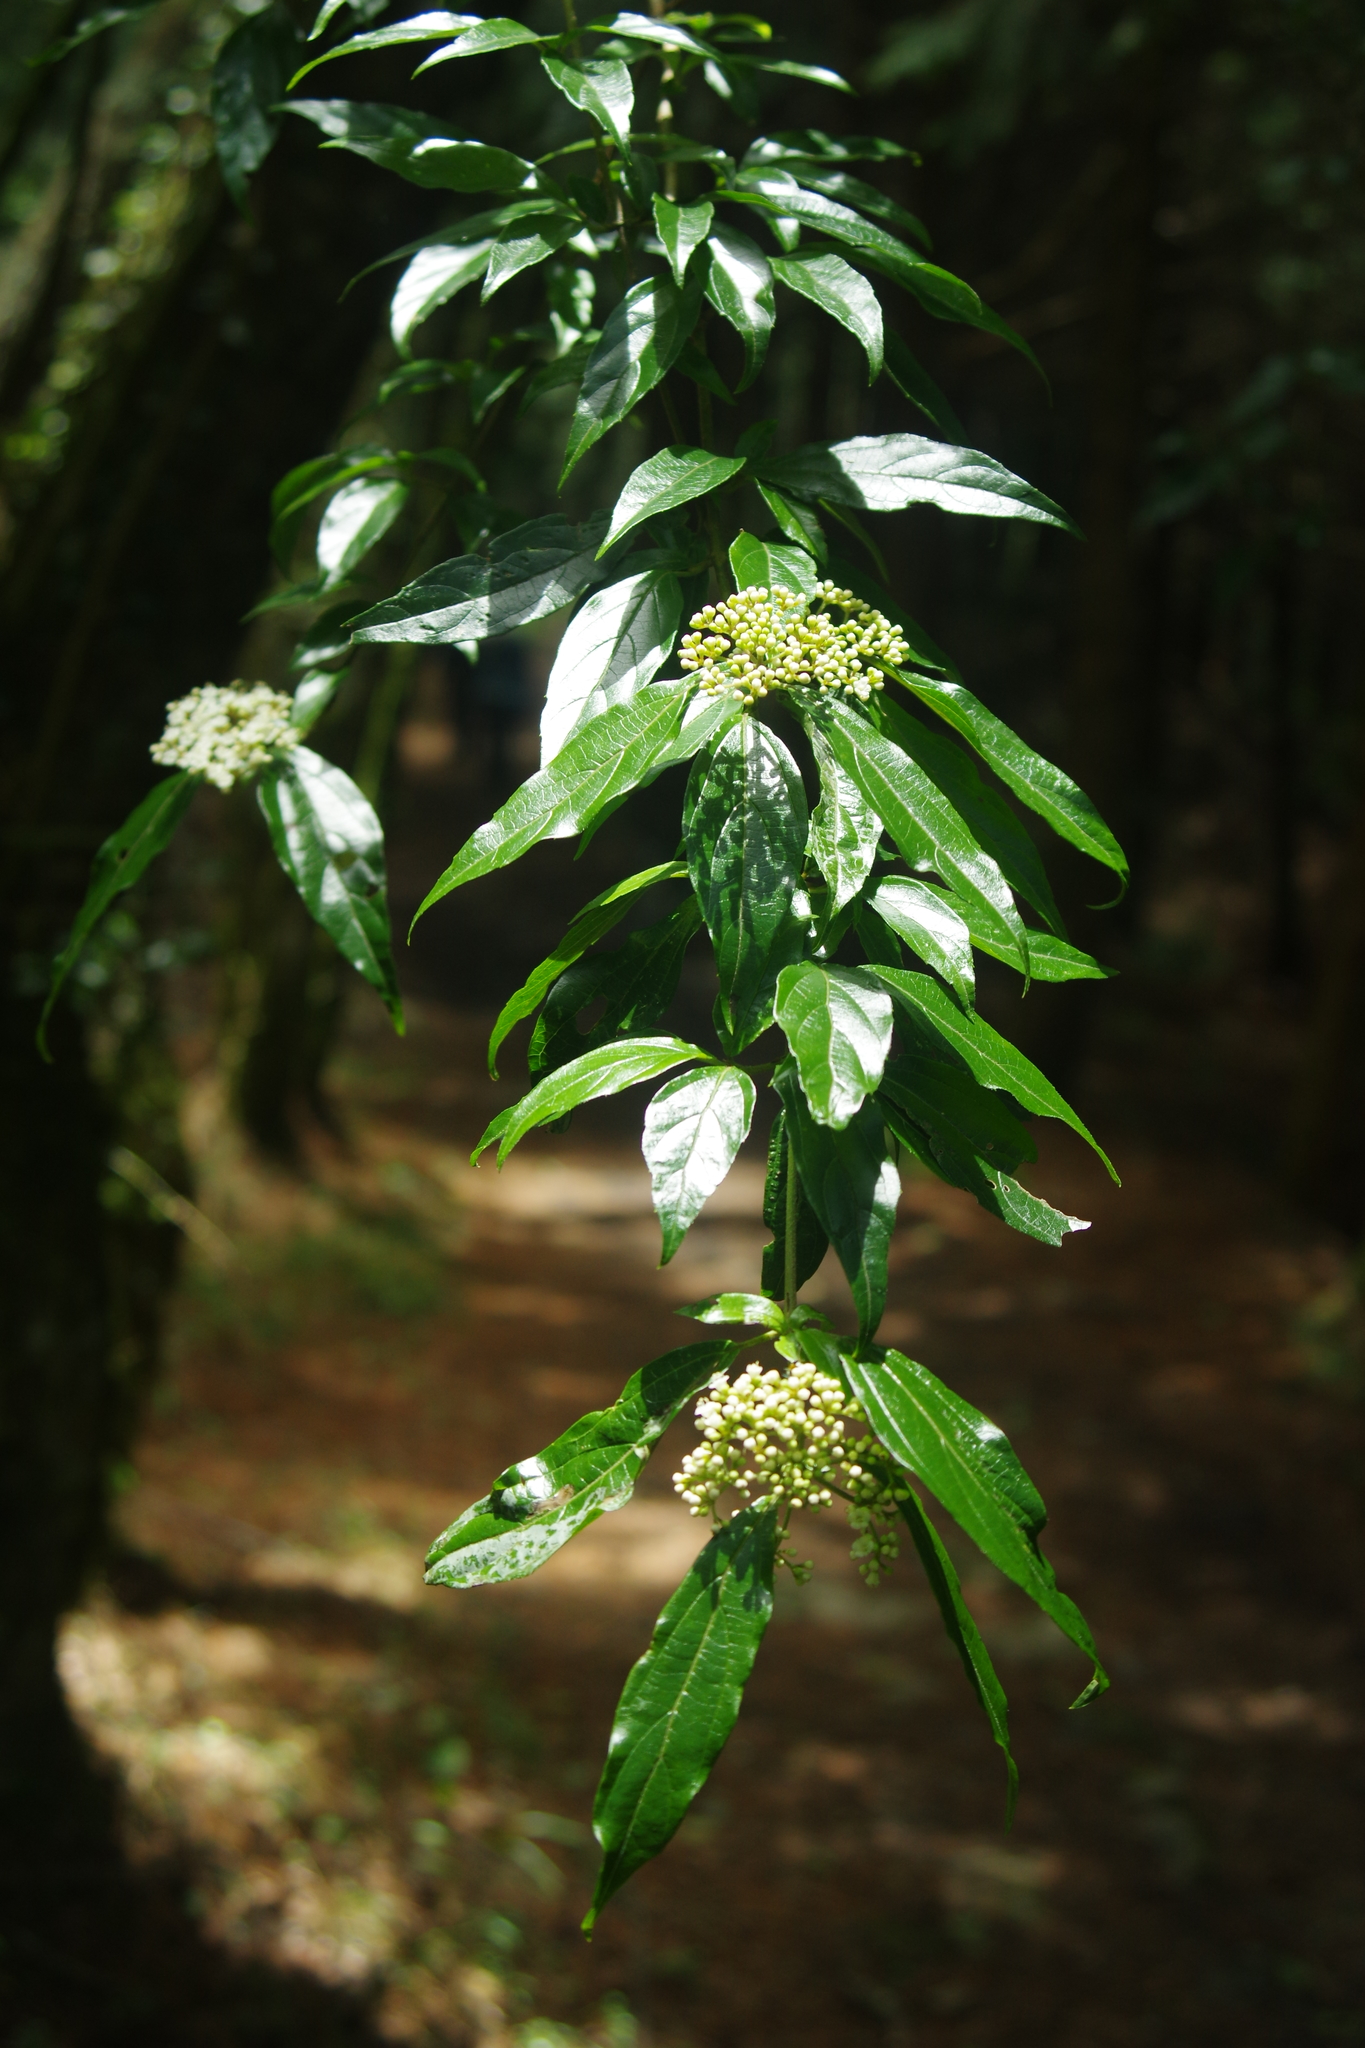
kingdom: Plantae
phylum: Tracheophyta
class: Magnoliopsida
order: Dipsacales
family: Viburnaceae
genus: Viburnum
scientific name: Viburnum foetidum
